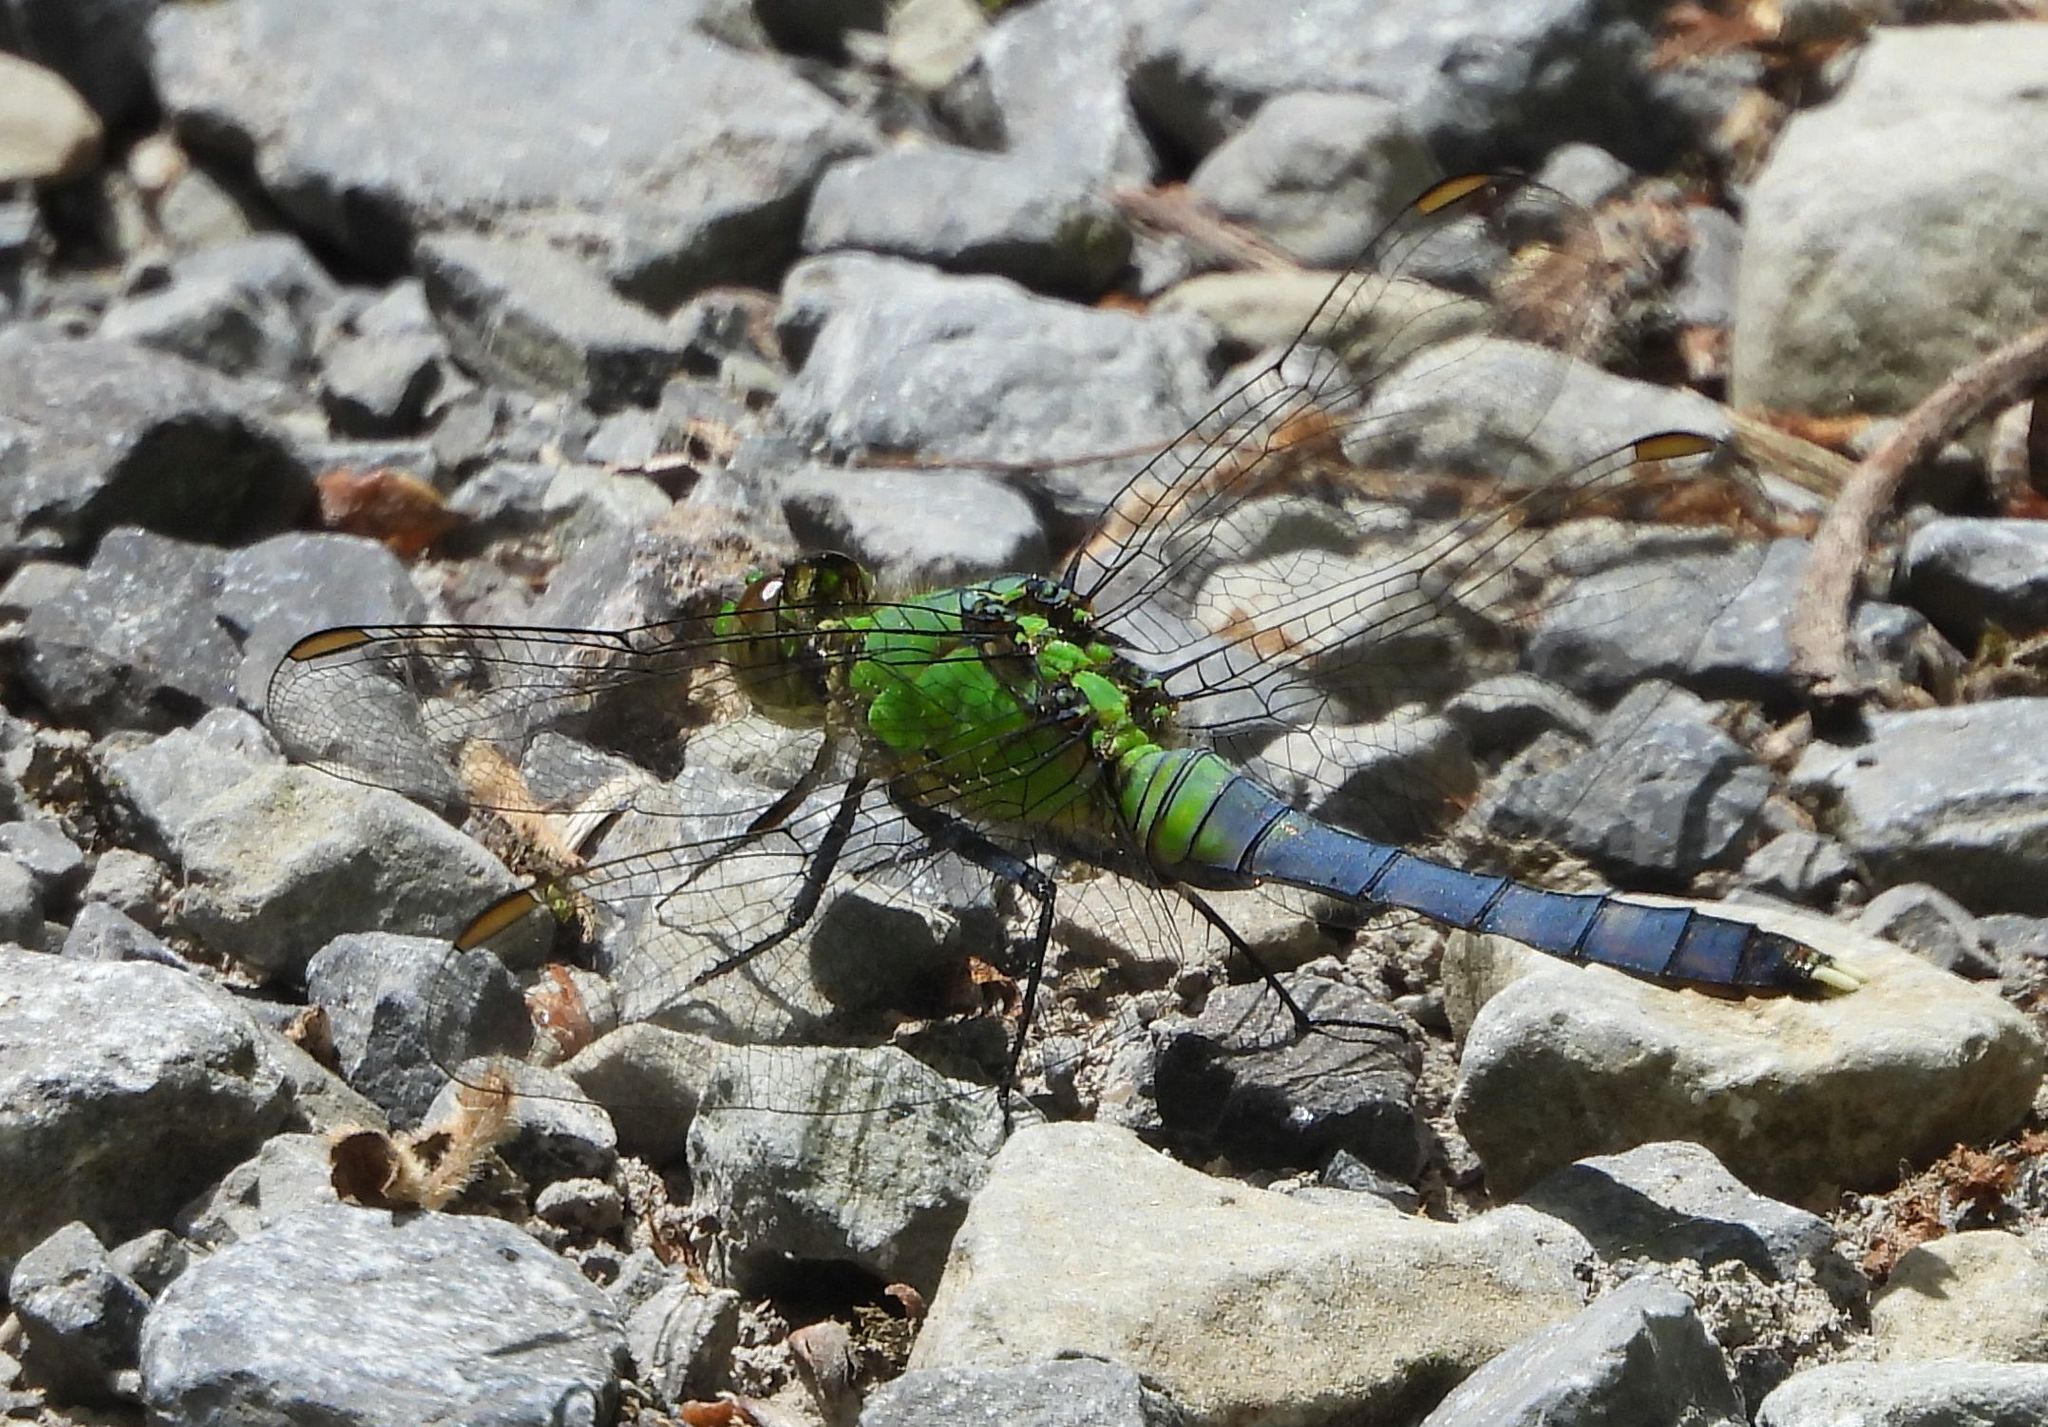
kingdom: Animalia
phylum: Arthropoda
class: Insecta
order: Odonata
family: Libellulidae
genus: Erythemis
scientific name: Erythemis simplicicollis
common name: Eastern pondhawk
